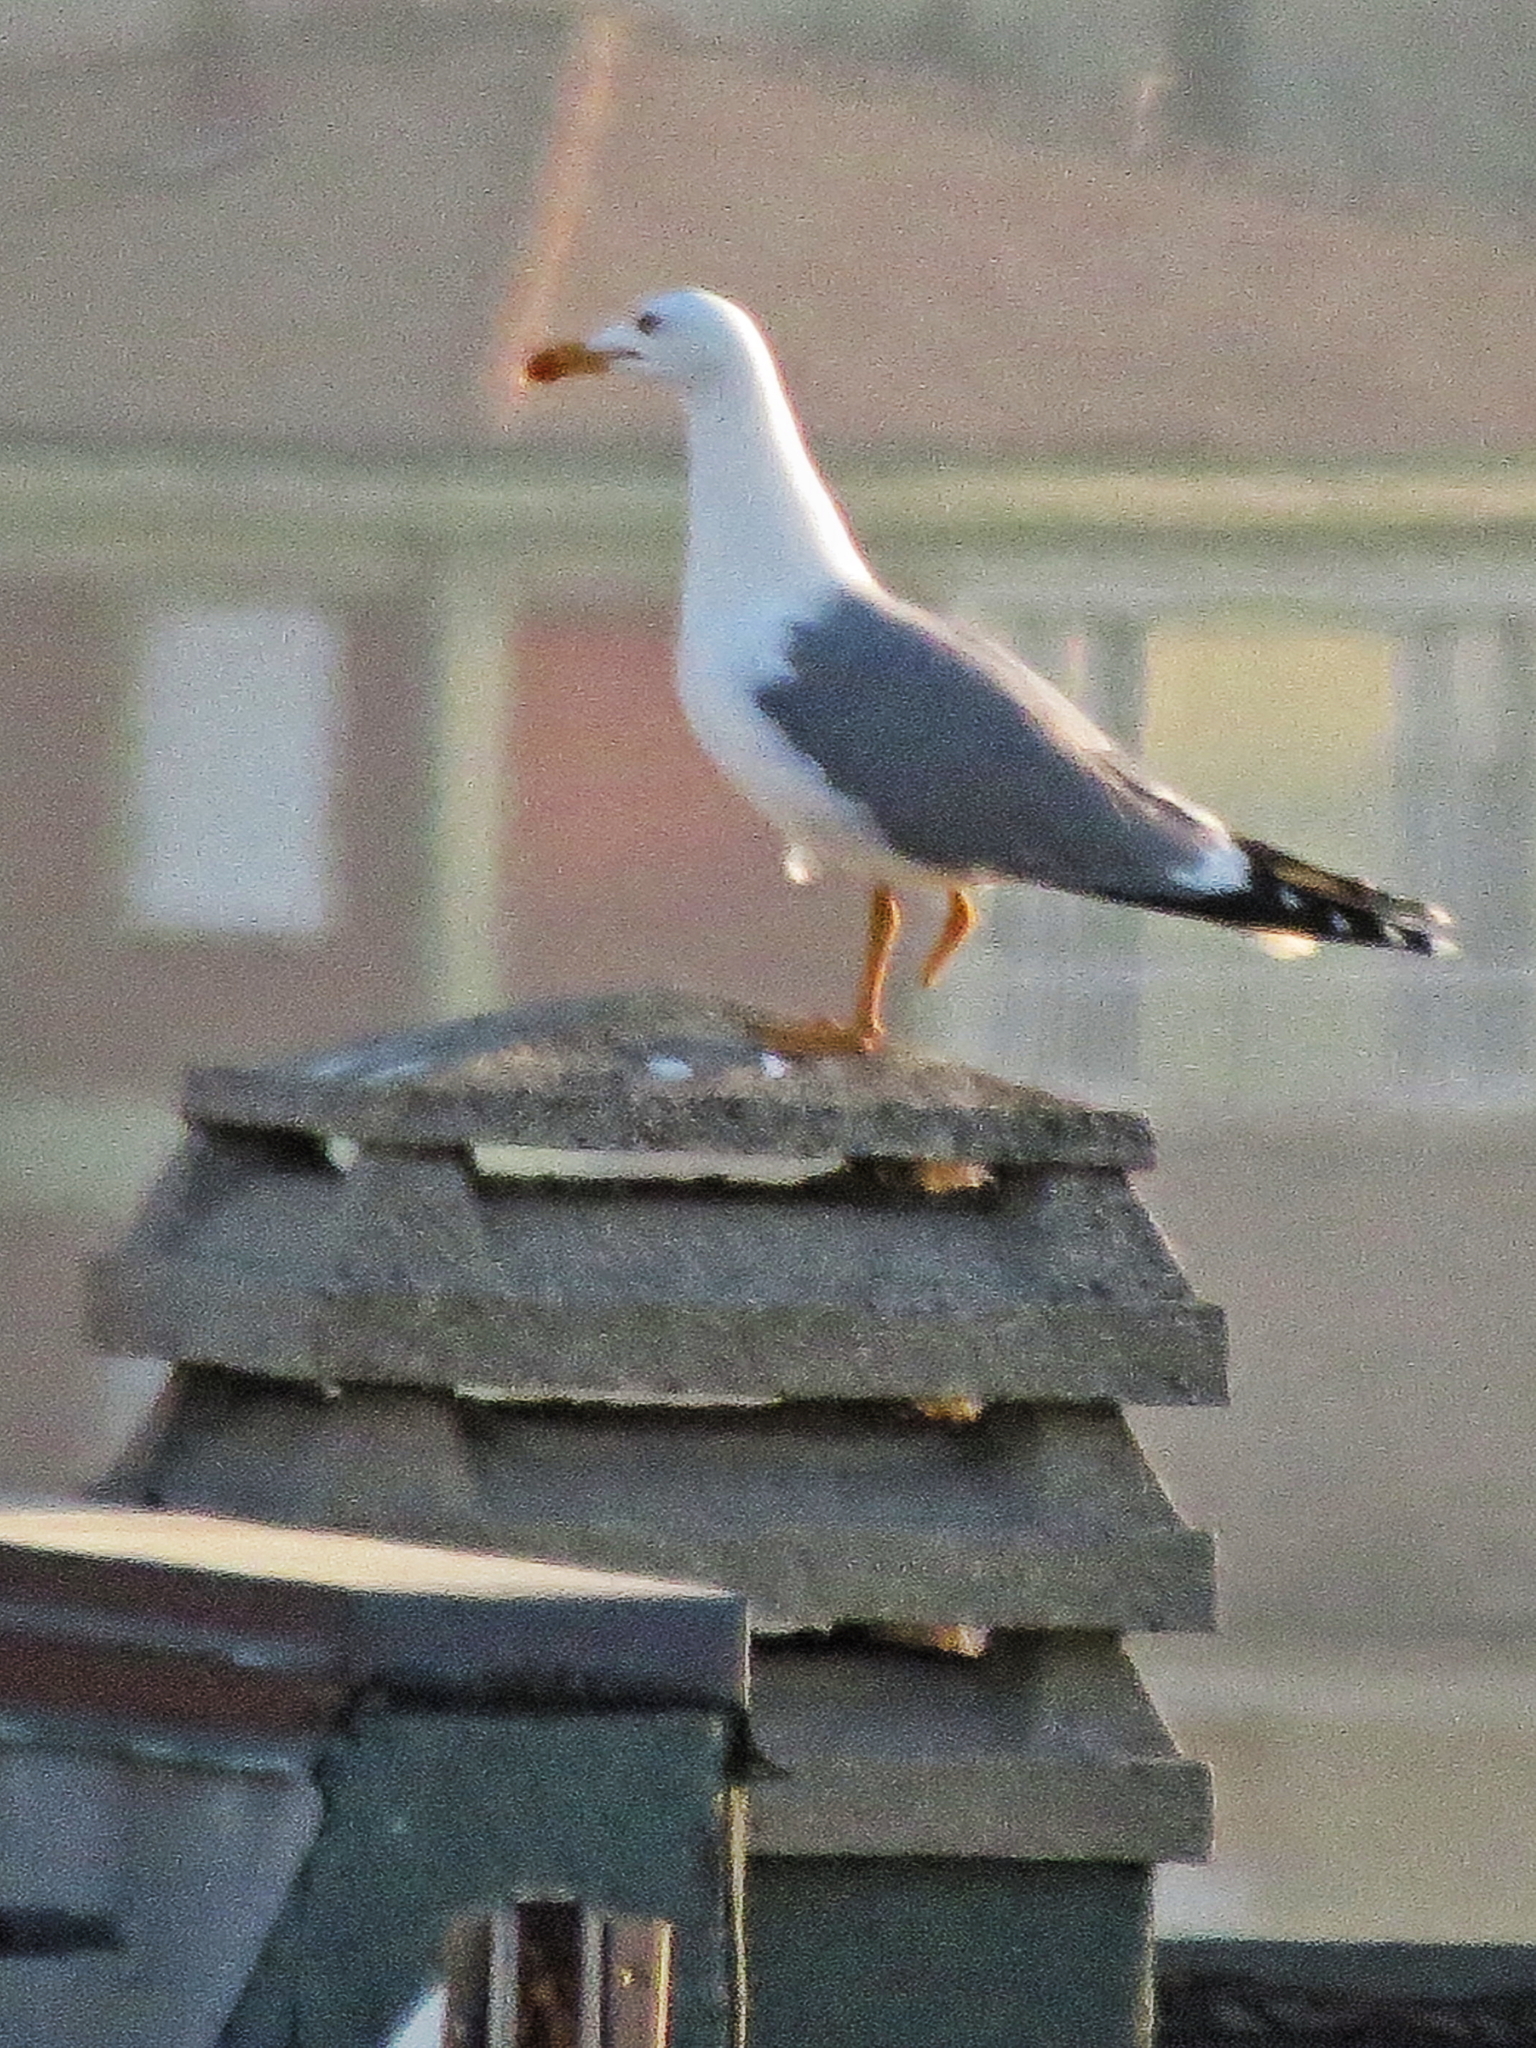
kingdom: Animalia
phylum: Chordata
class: Aves
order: Charadriiformes
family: Laridae
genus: Larus
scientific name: Larus michahellis
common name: Yellow-legged gull
